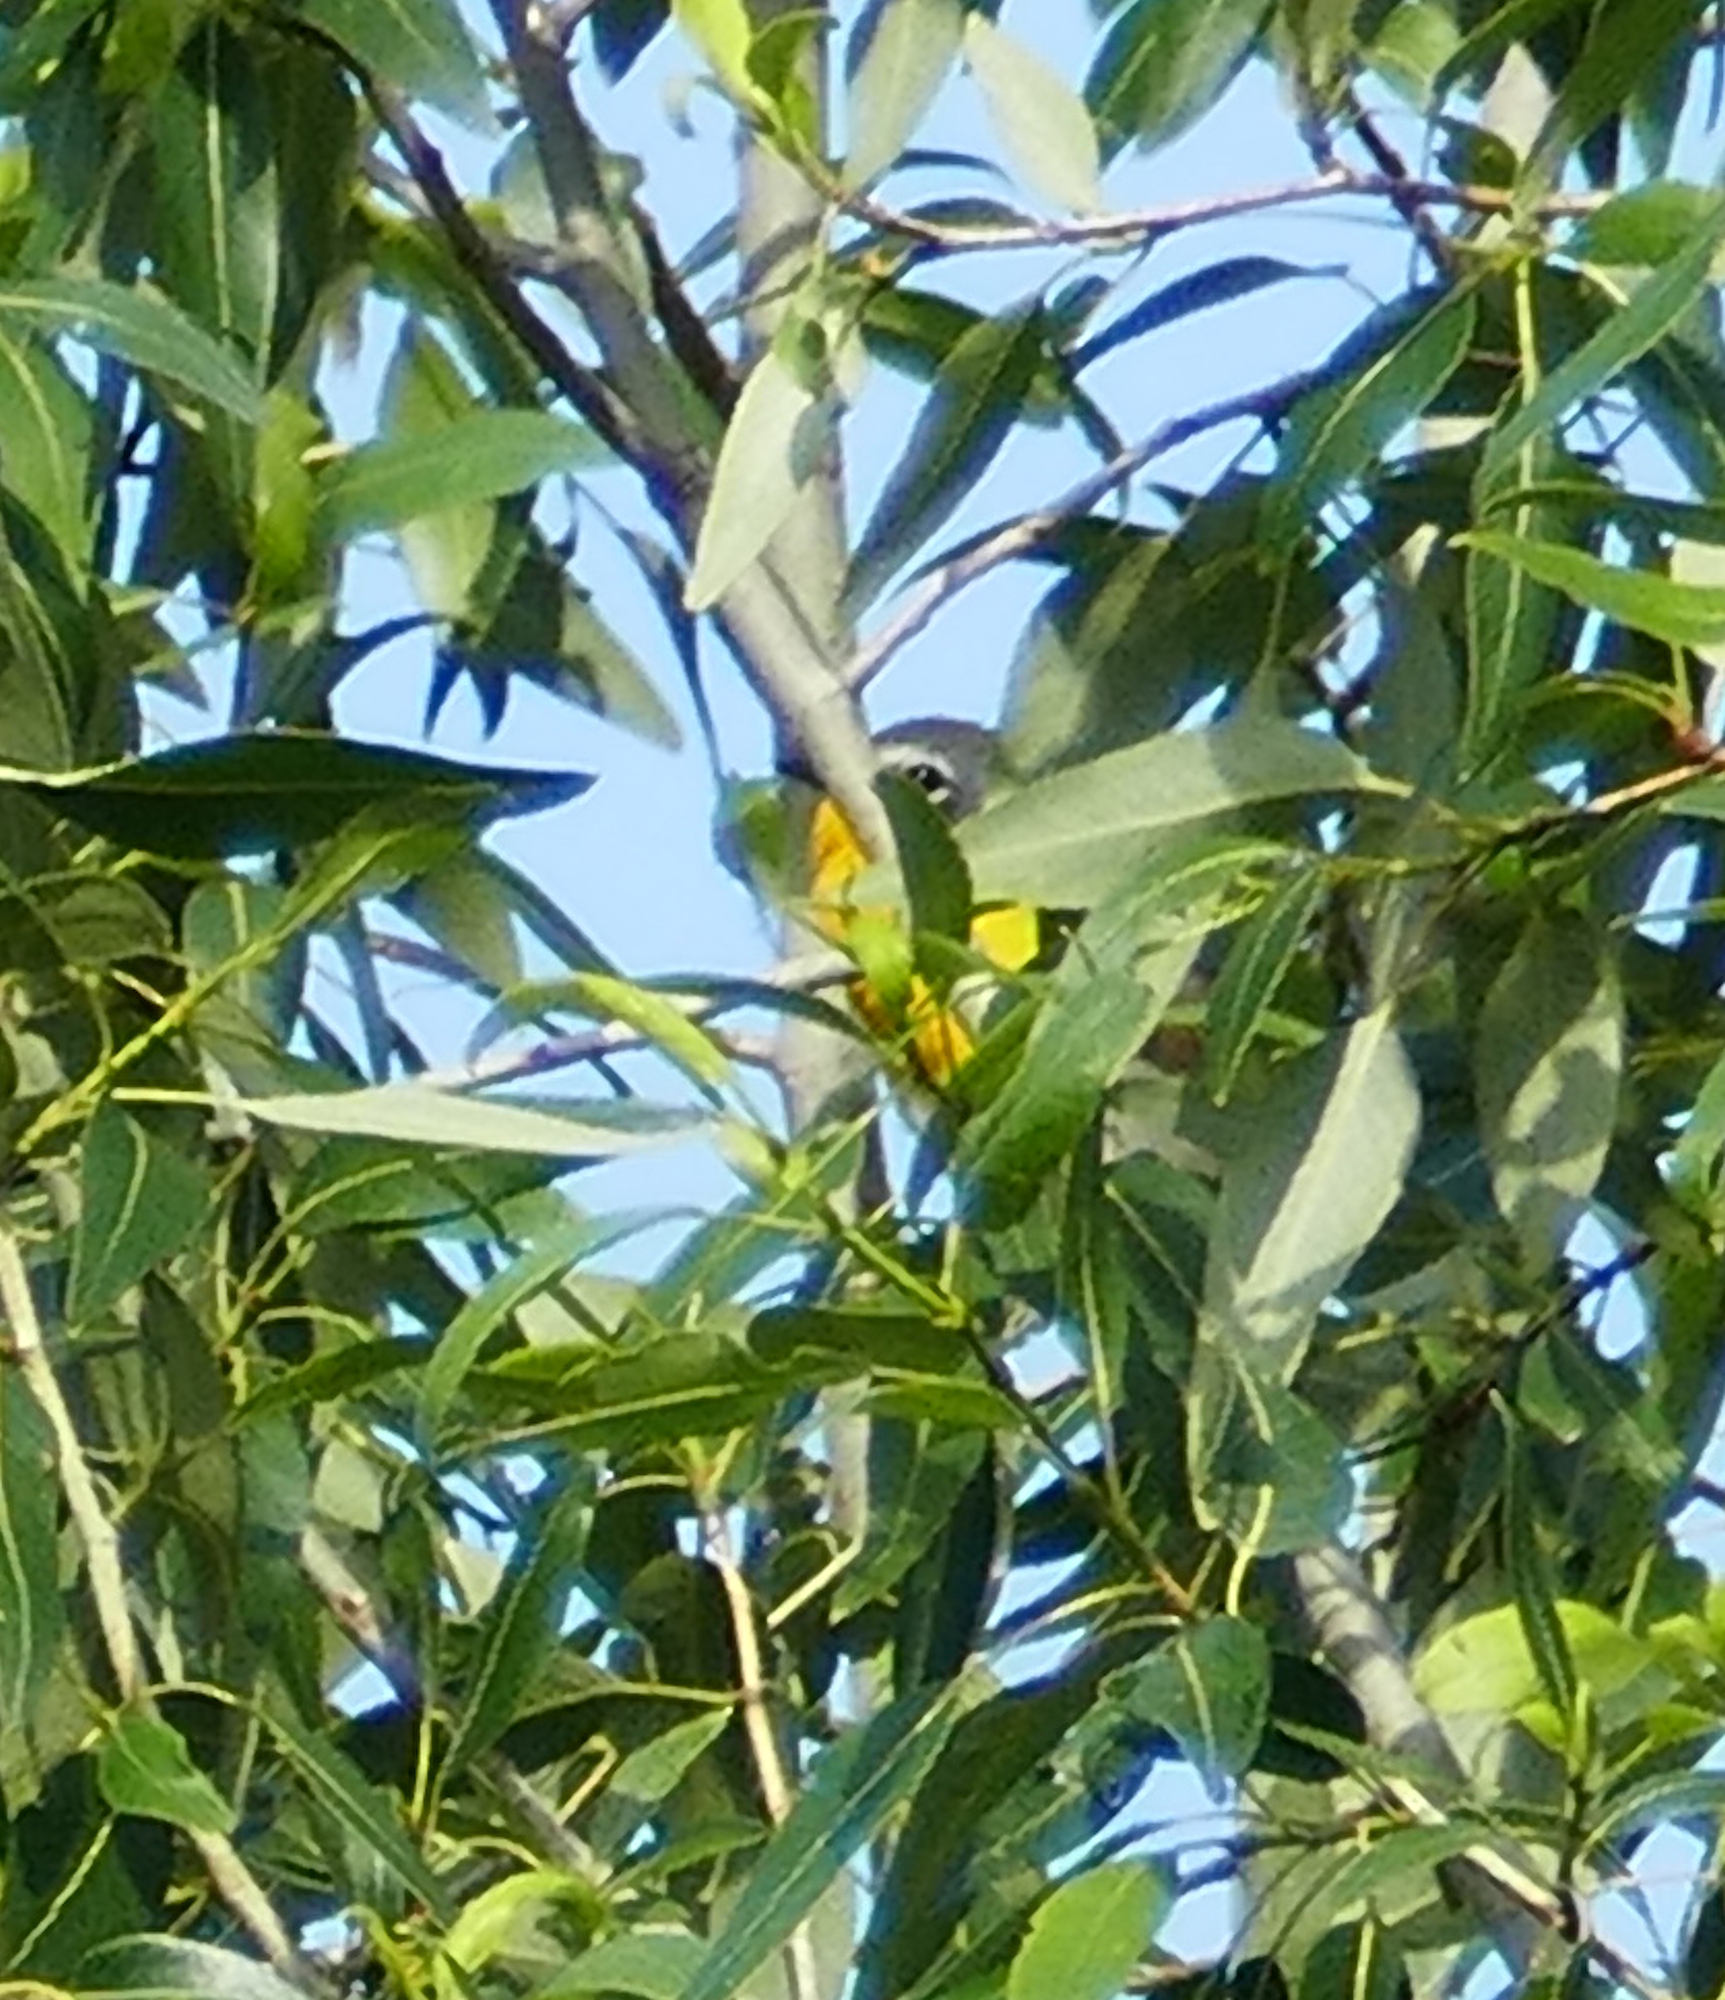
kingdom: Animalia
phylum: Chordata
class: Aves
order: Passeriformes
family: Parulidae
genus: Icteria
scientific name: Icteria virens
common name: Yellow-breasted chat
